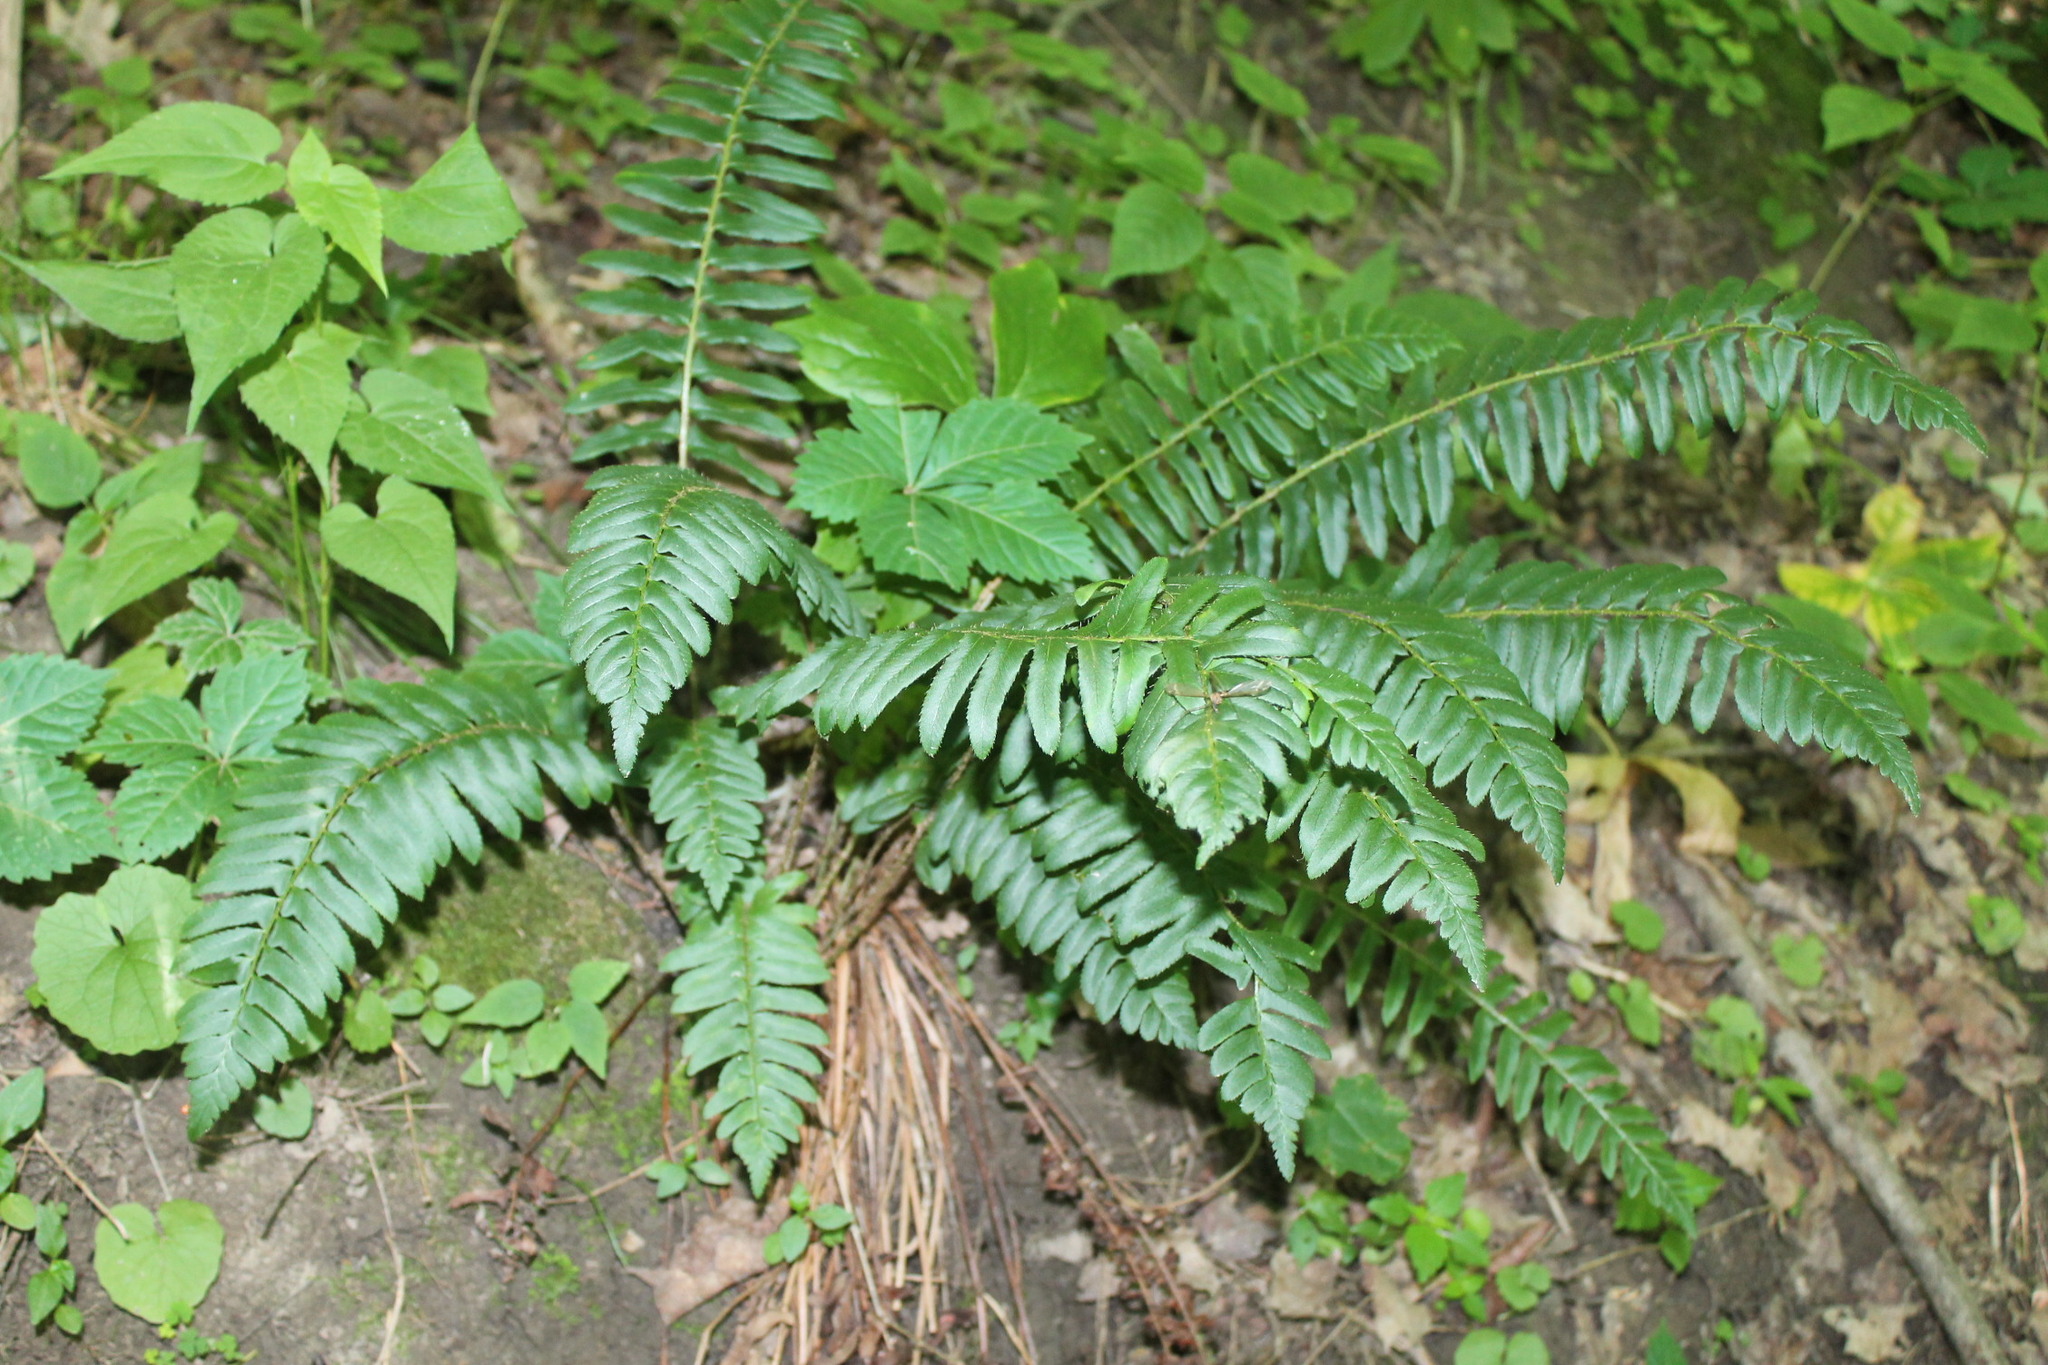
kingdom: Plantae
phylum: Tracheophyta
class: Polypodiopsida
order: Polypodiales
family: Dryopteridaceae
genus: Polystichum
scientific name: Polystichum acrostichoides
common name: Christmas fern
